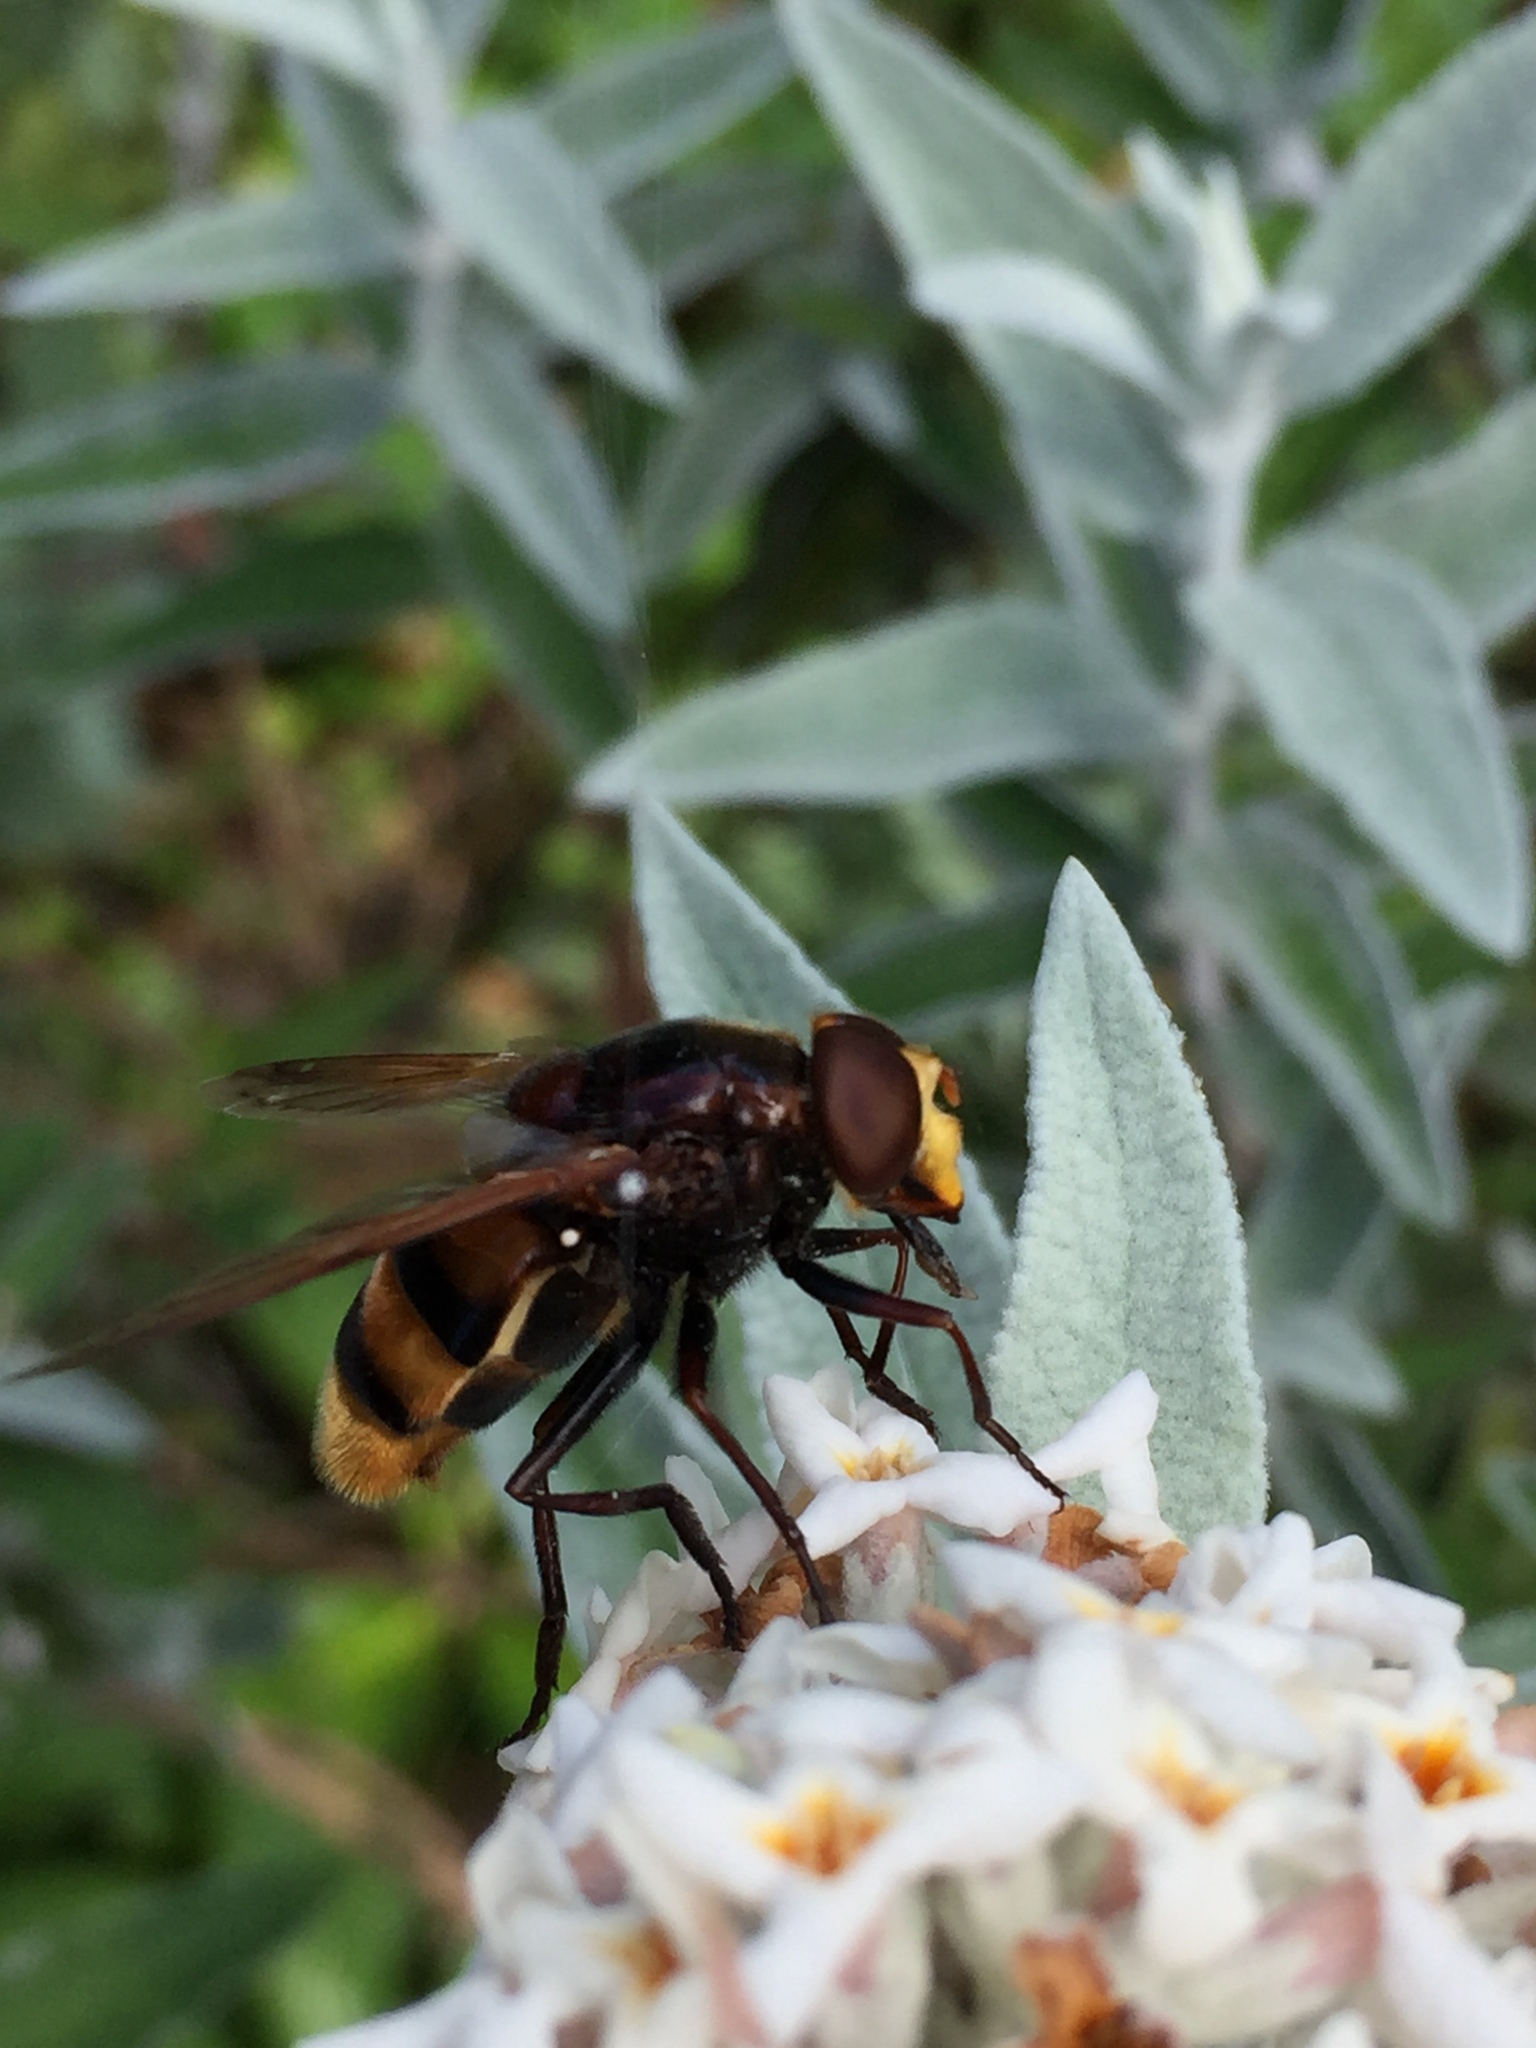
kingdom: Animalia
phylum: Arthropoda
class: Insecta
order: Diptera
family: Syrphidae
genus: Volucella
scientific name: Volucella zonaria
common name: Hornet hoverfly
